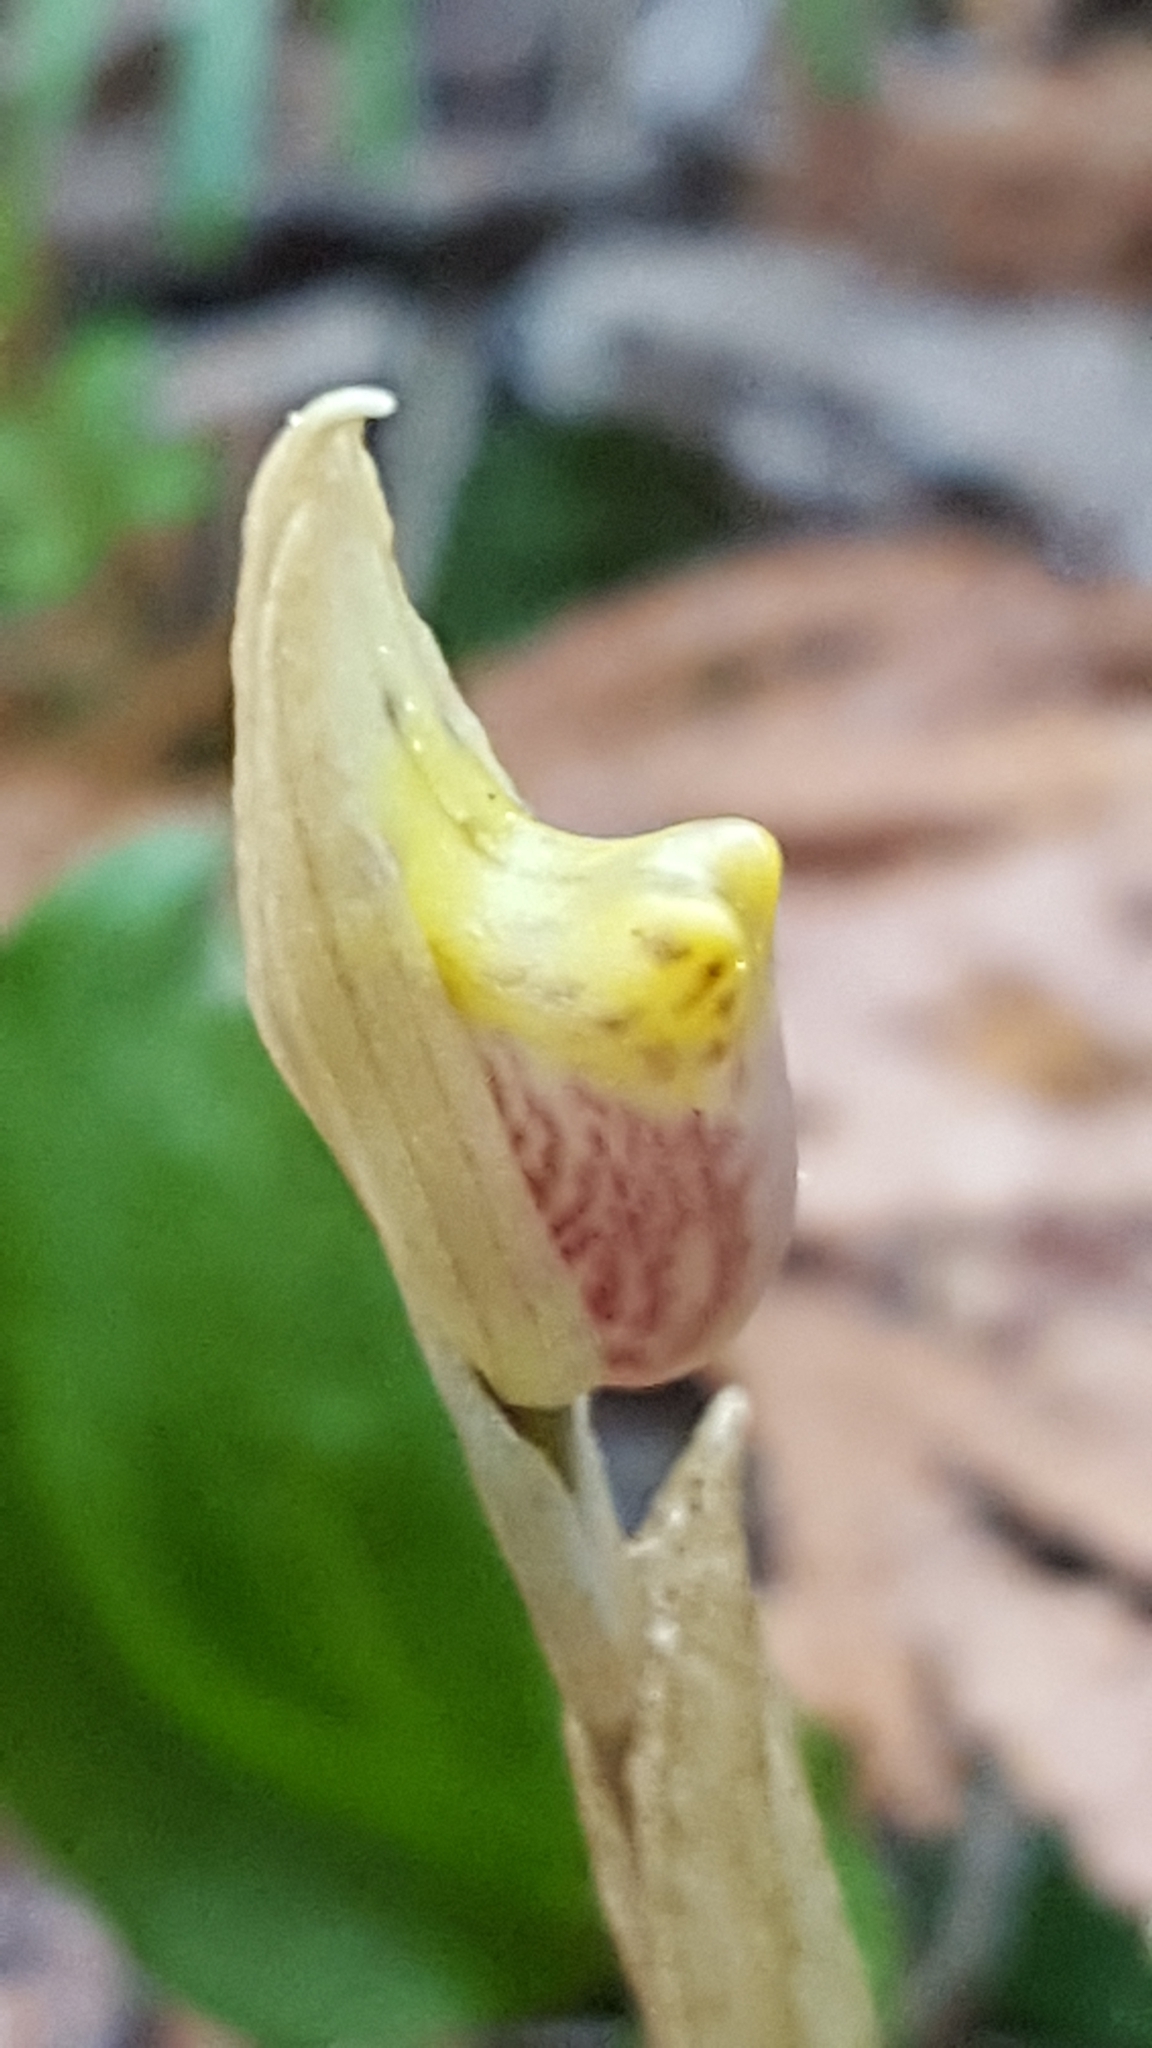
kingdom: Plantae
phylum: Tracheophyta
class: Liliopsida
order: Asparagales
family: Orchidaceae
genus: Calypso
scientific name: Calypso bulbosa
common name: Calypso
